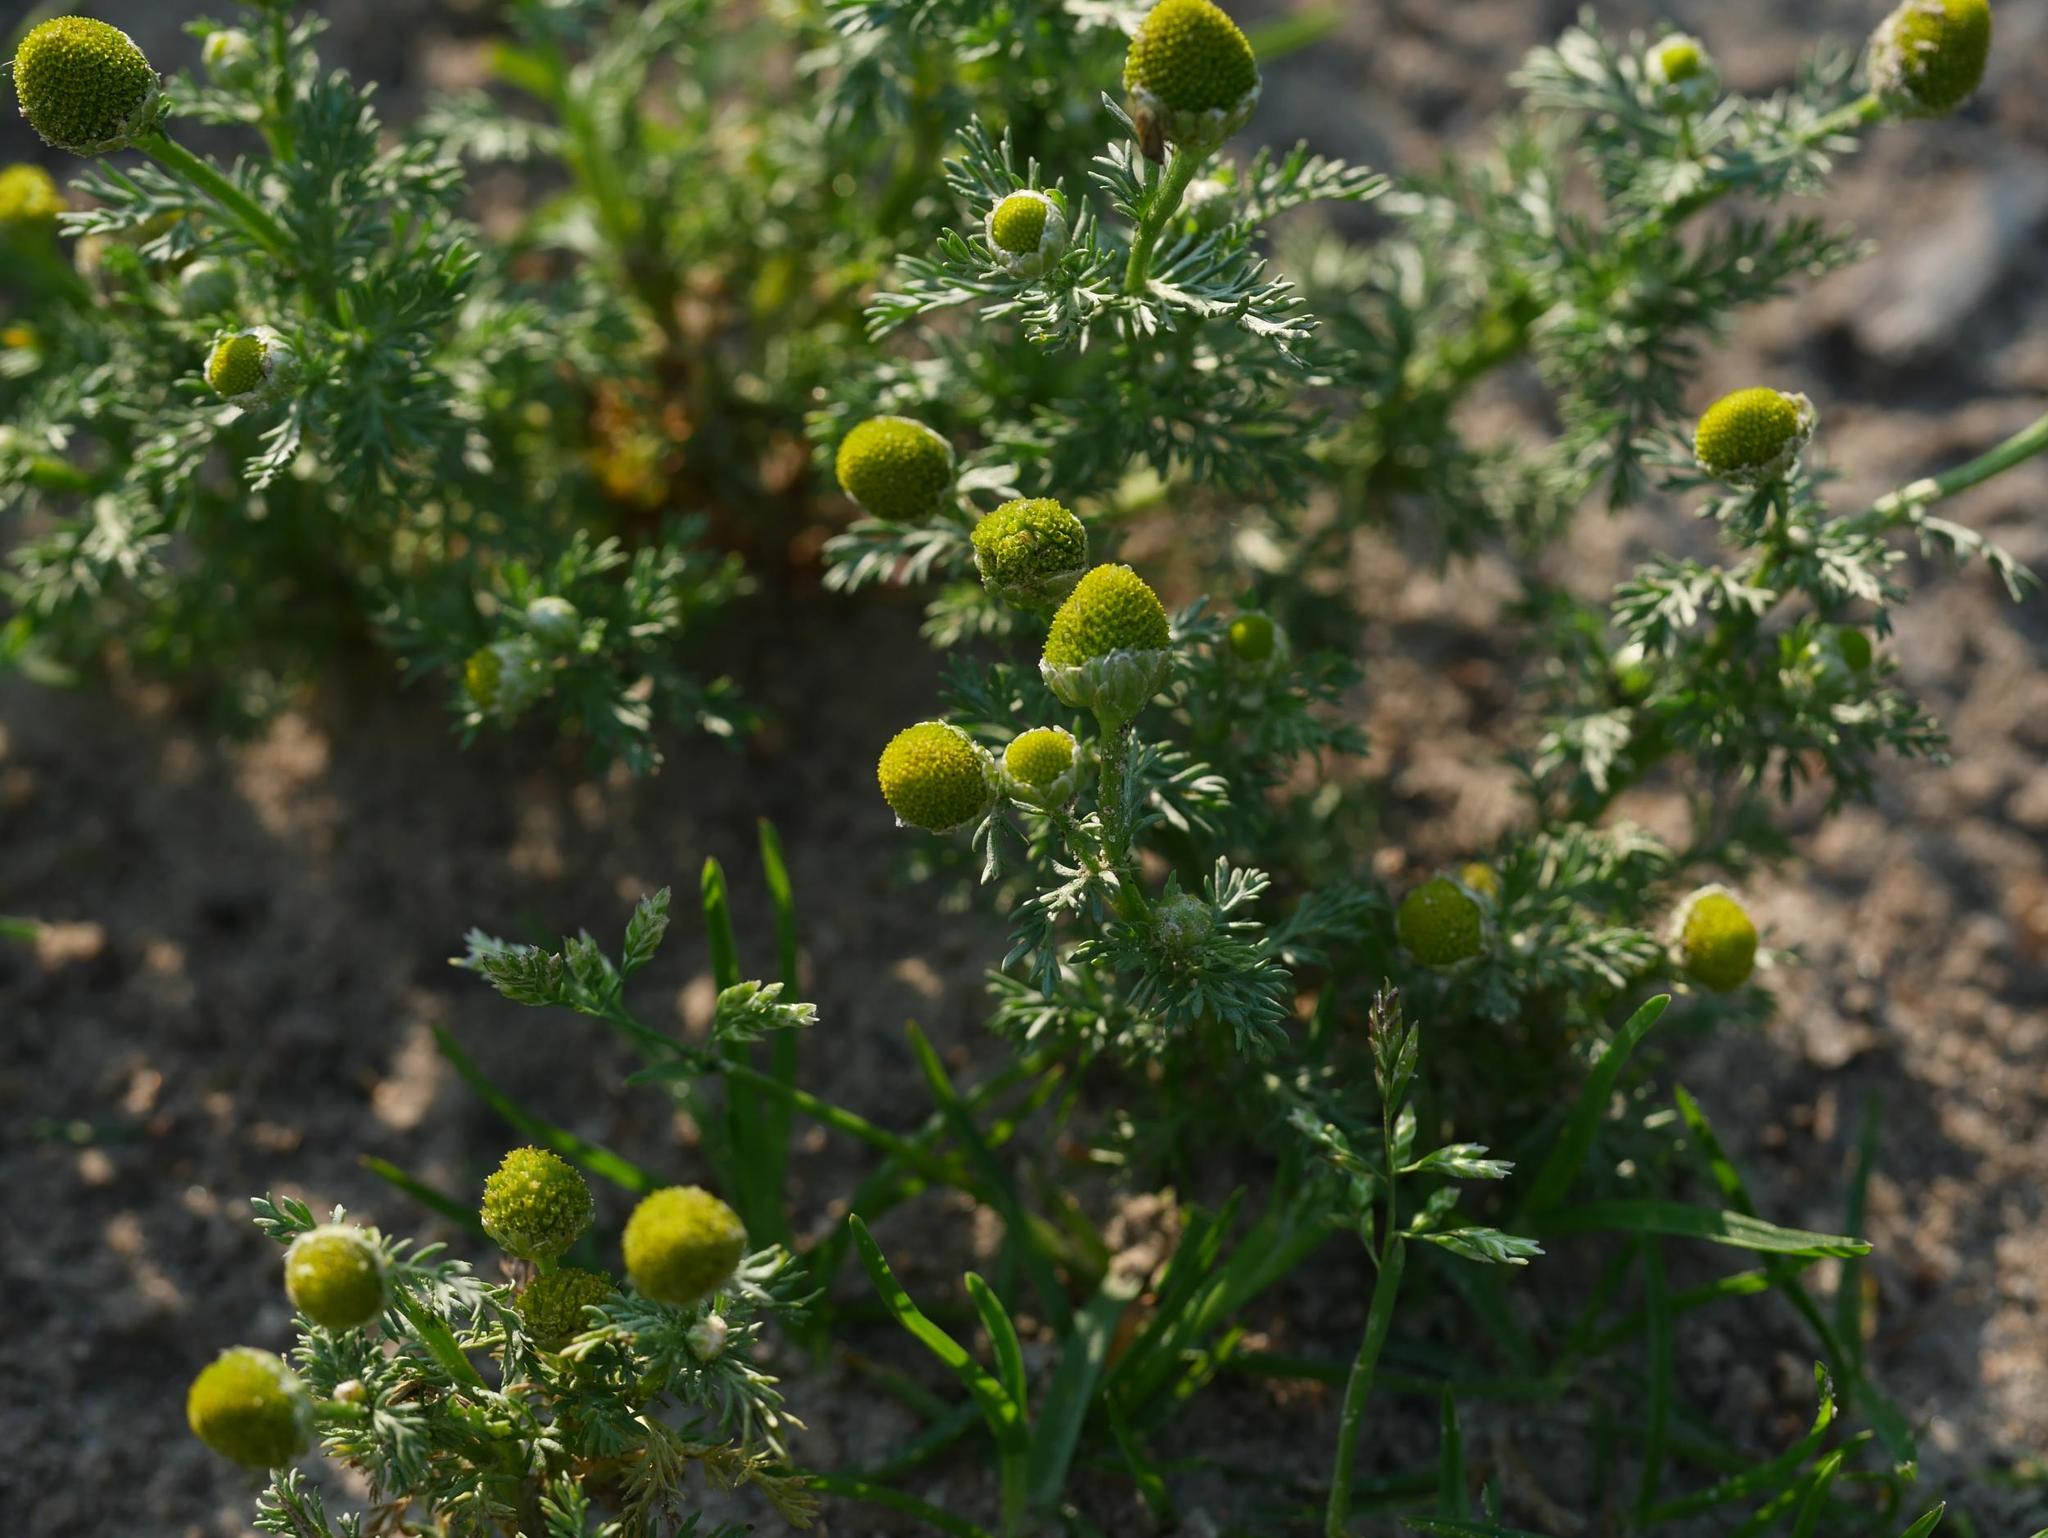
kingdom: Plantae
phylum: Tracheophyta
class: Magnoliopsida
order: Asterales
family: Asteraceae
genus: Matricaria
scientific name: Matricaria discoidea
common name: Disc mayweed
